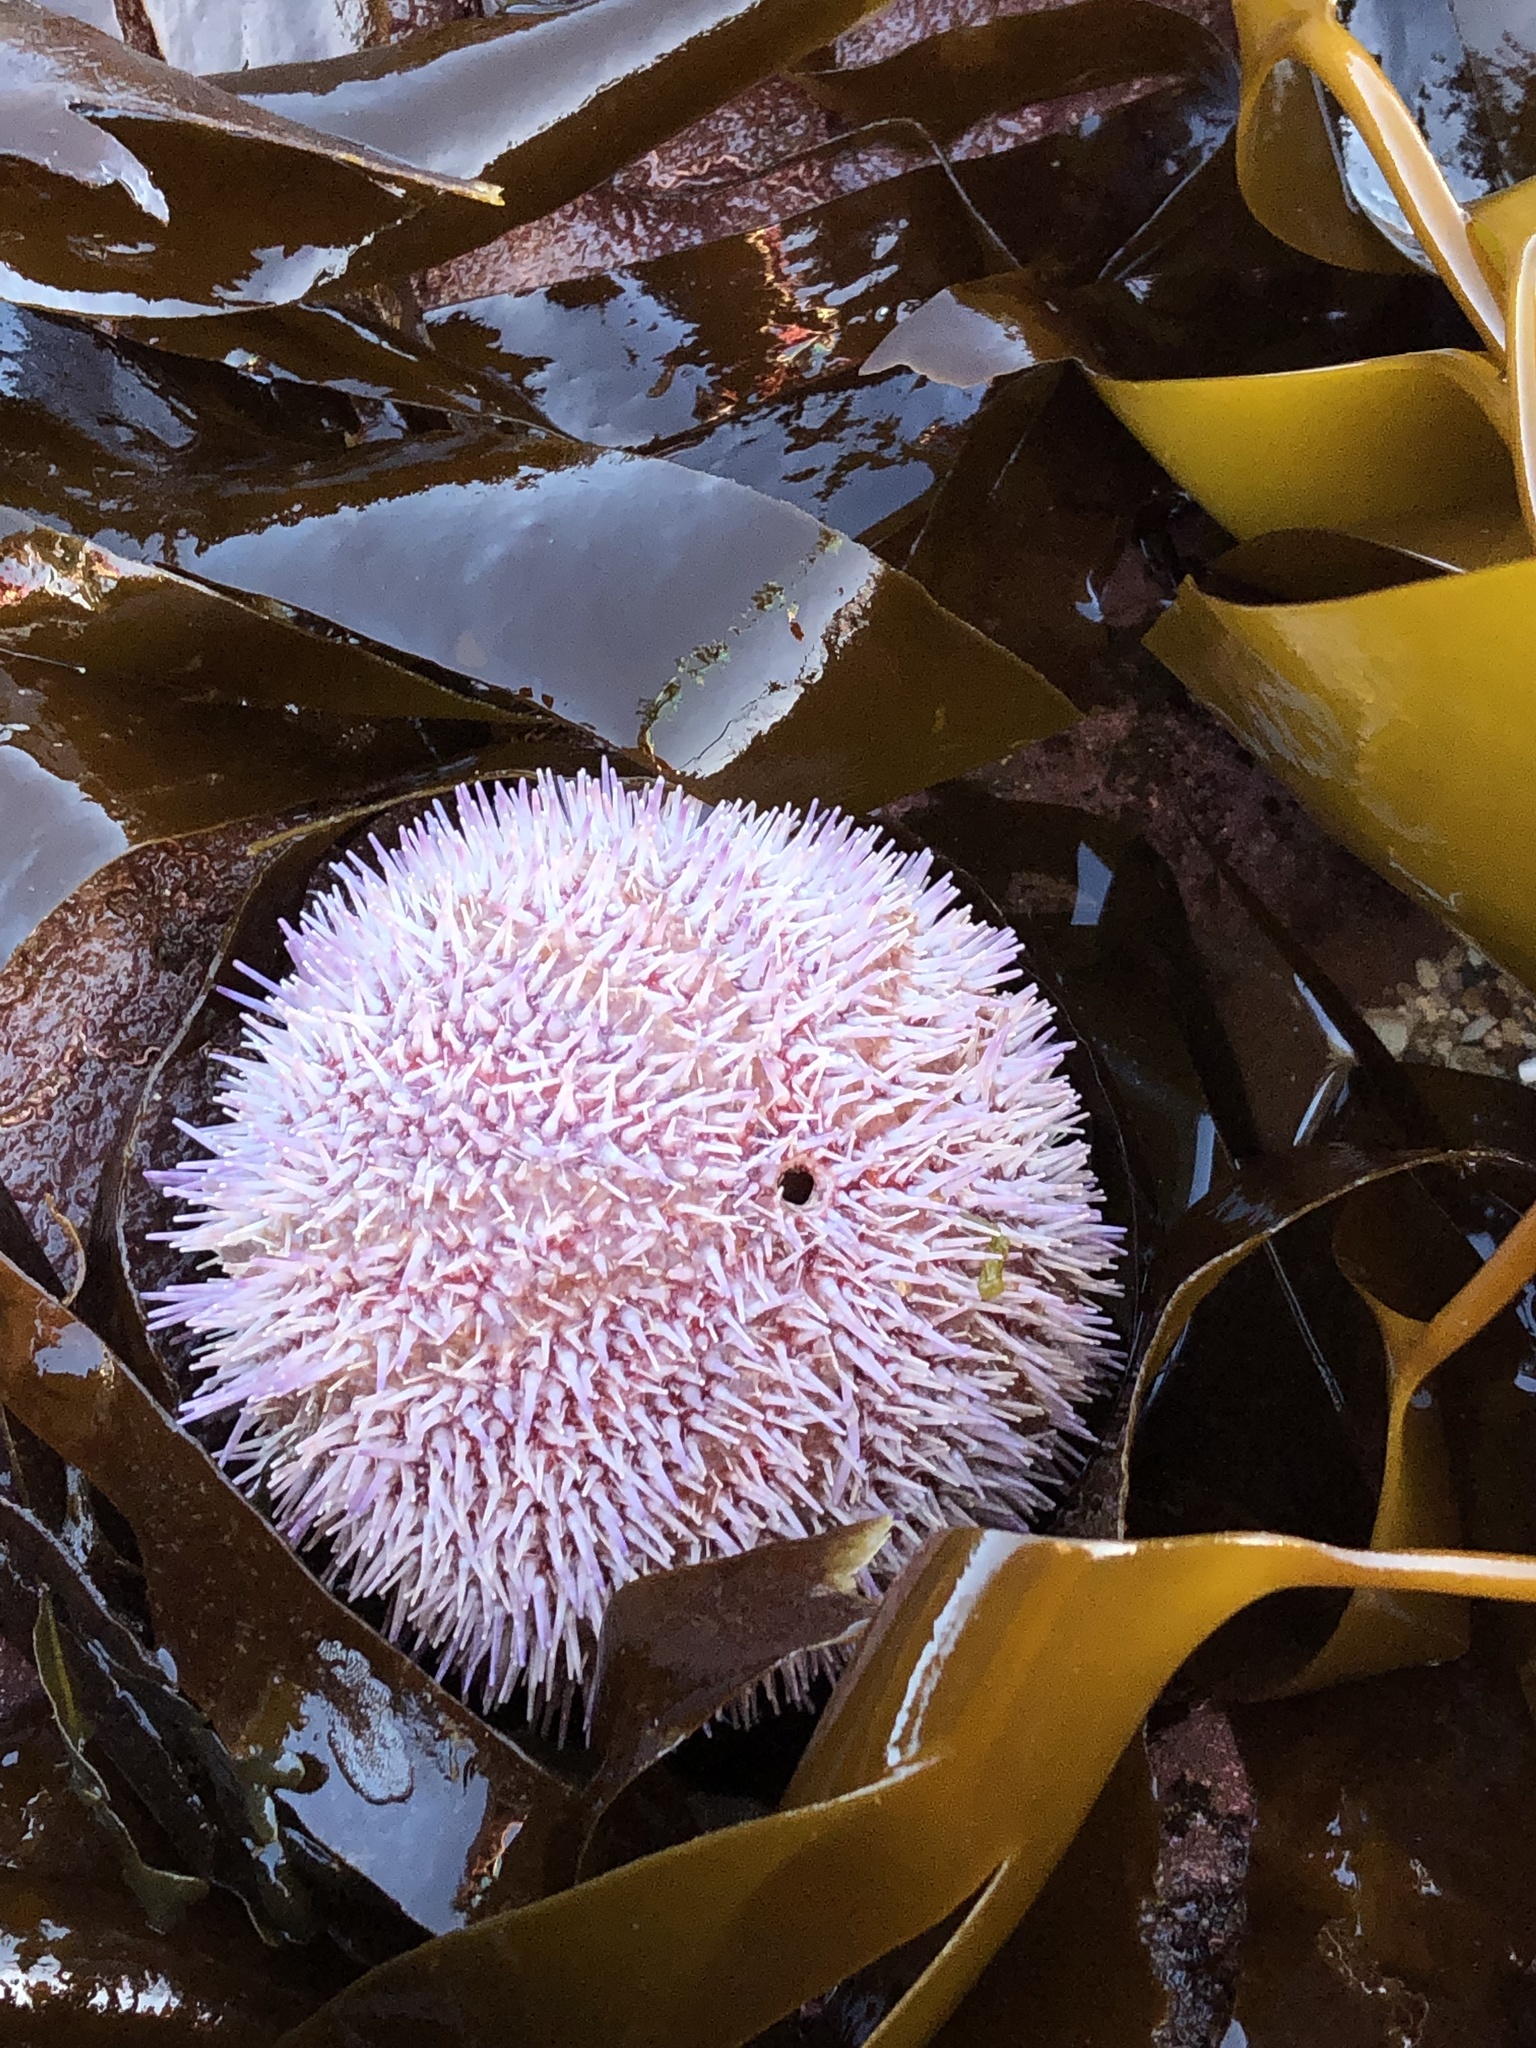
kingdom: Animalia
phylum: Echinodermata
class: Echinoidea
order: Camarodonta
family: Echinidae
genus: Echinus
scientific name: Echinus esculentus
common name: Edible sea urchin
